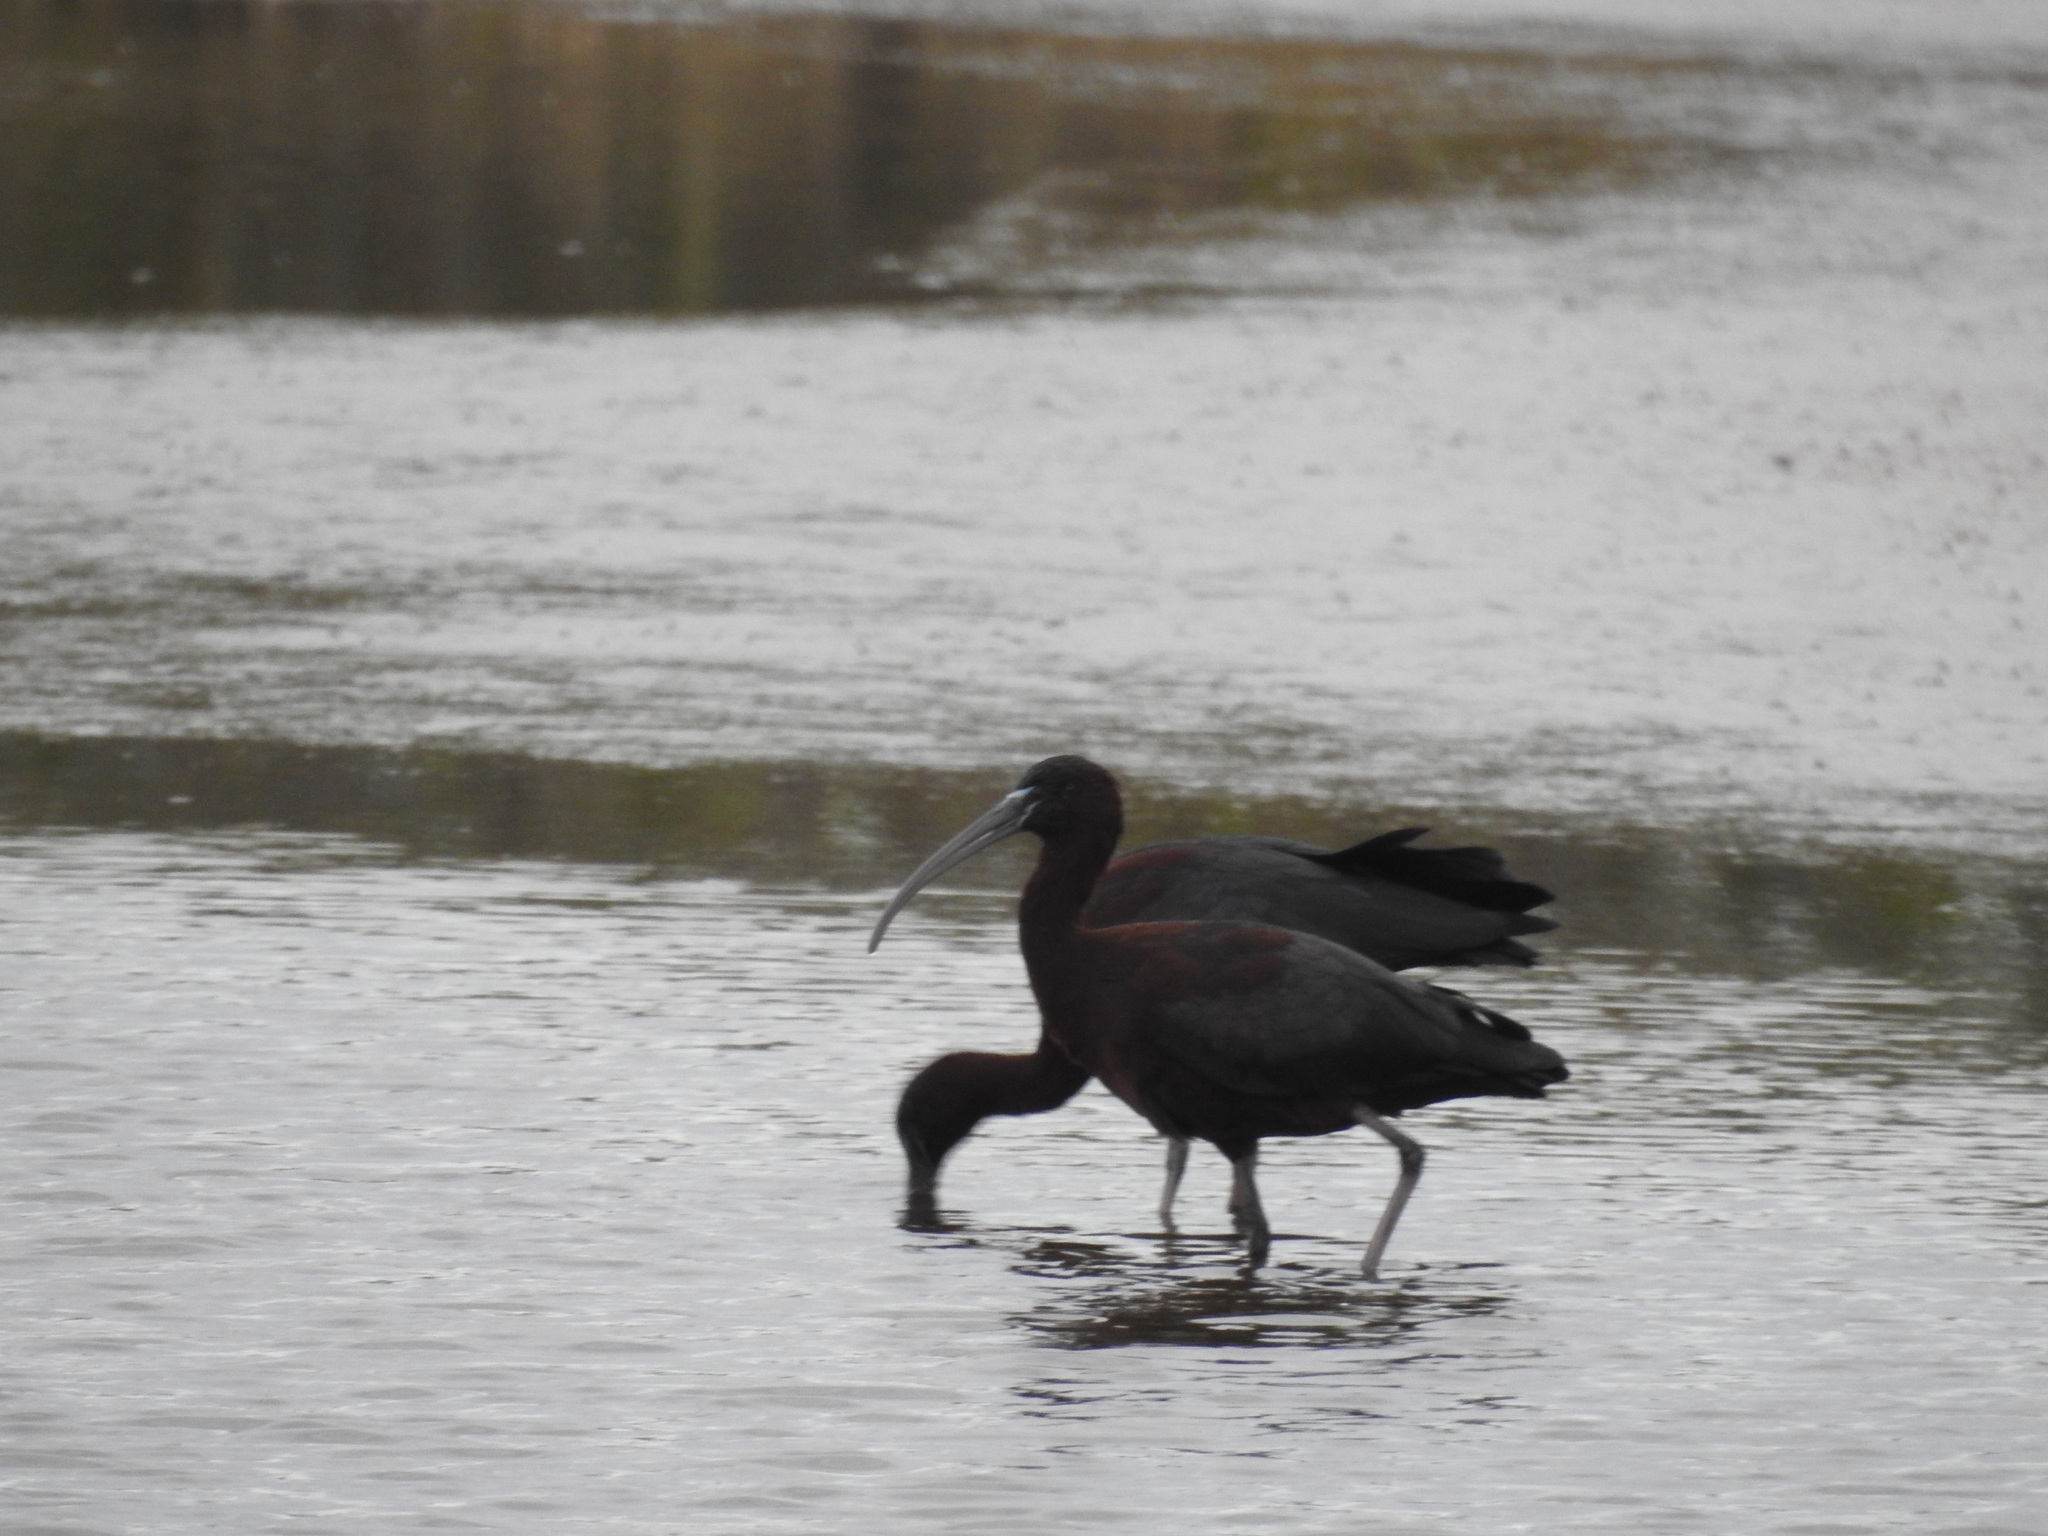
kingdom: Animalia
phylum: Chordata
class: Aves
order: Pelecaniformes
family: Threskiornithidae
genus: Plegadis
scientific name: Plegadis falcinellus
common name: Glossy ibis
